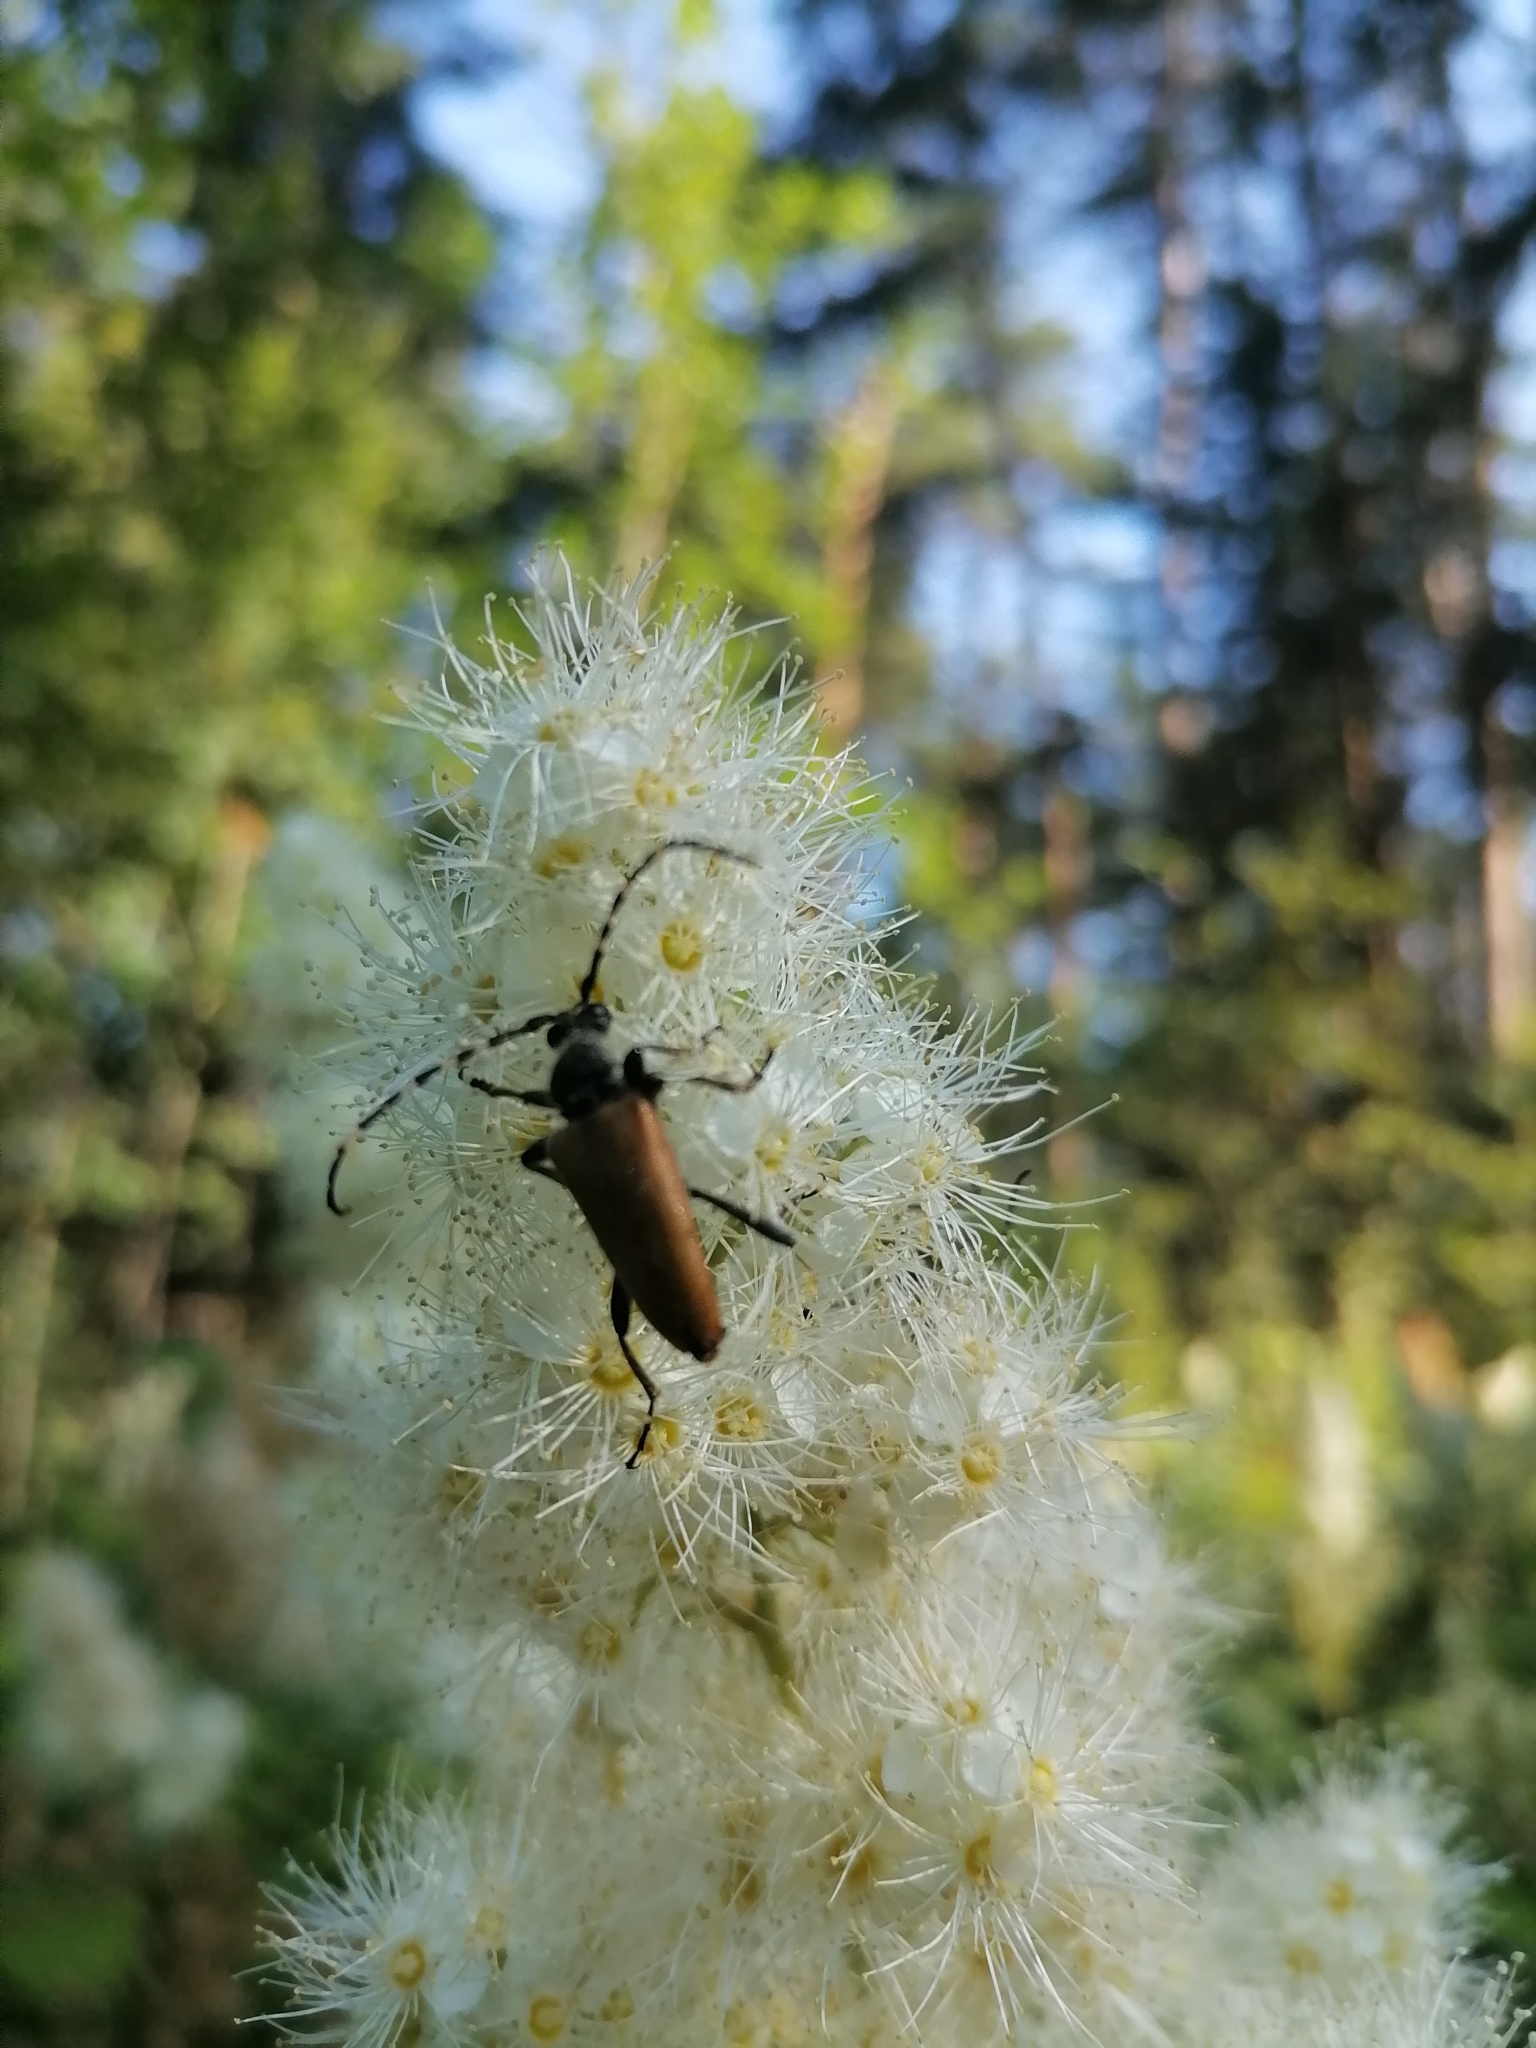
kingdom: Animalia
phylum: Arthropoda
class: Insecta
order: Coleoptera
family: Cerambycidae
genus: Stictoleptura
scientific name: Stictoleptura variicornis
